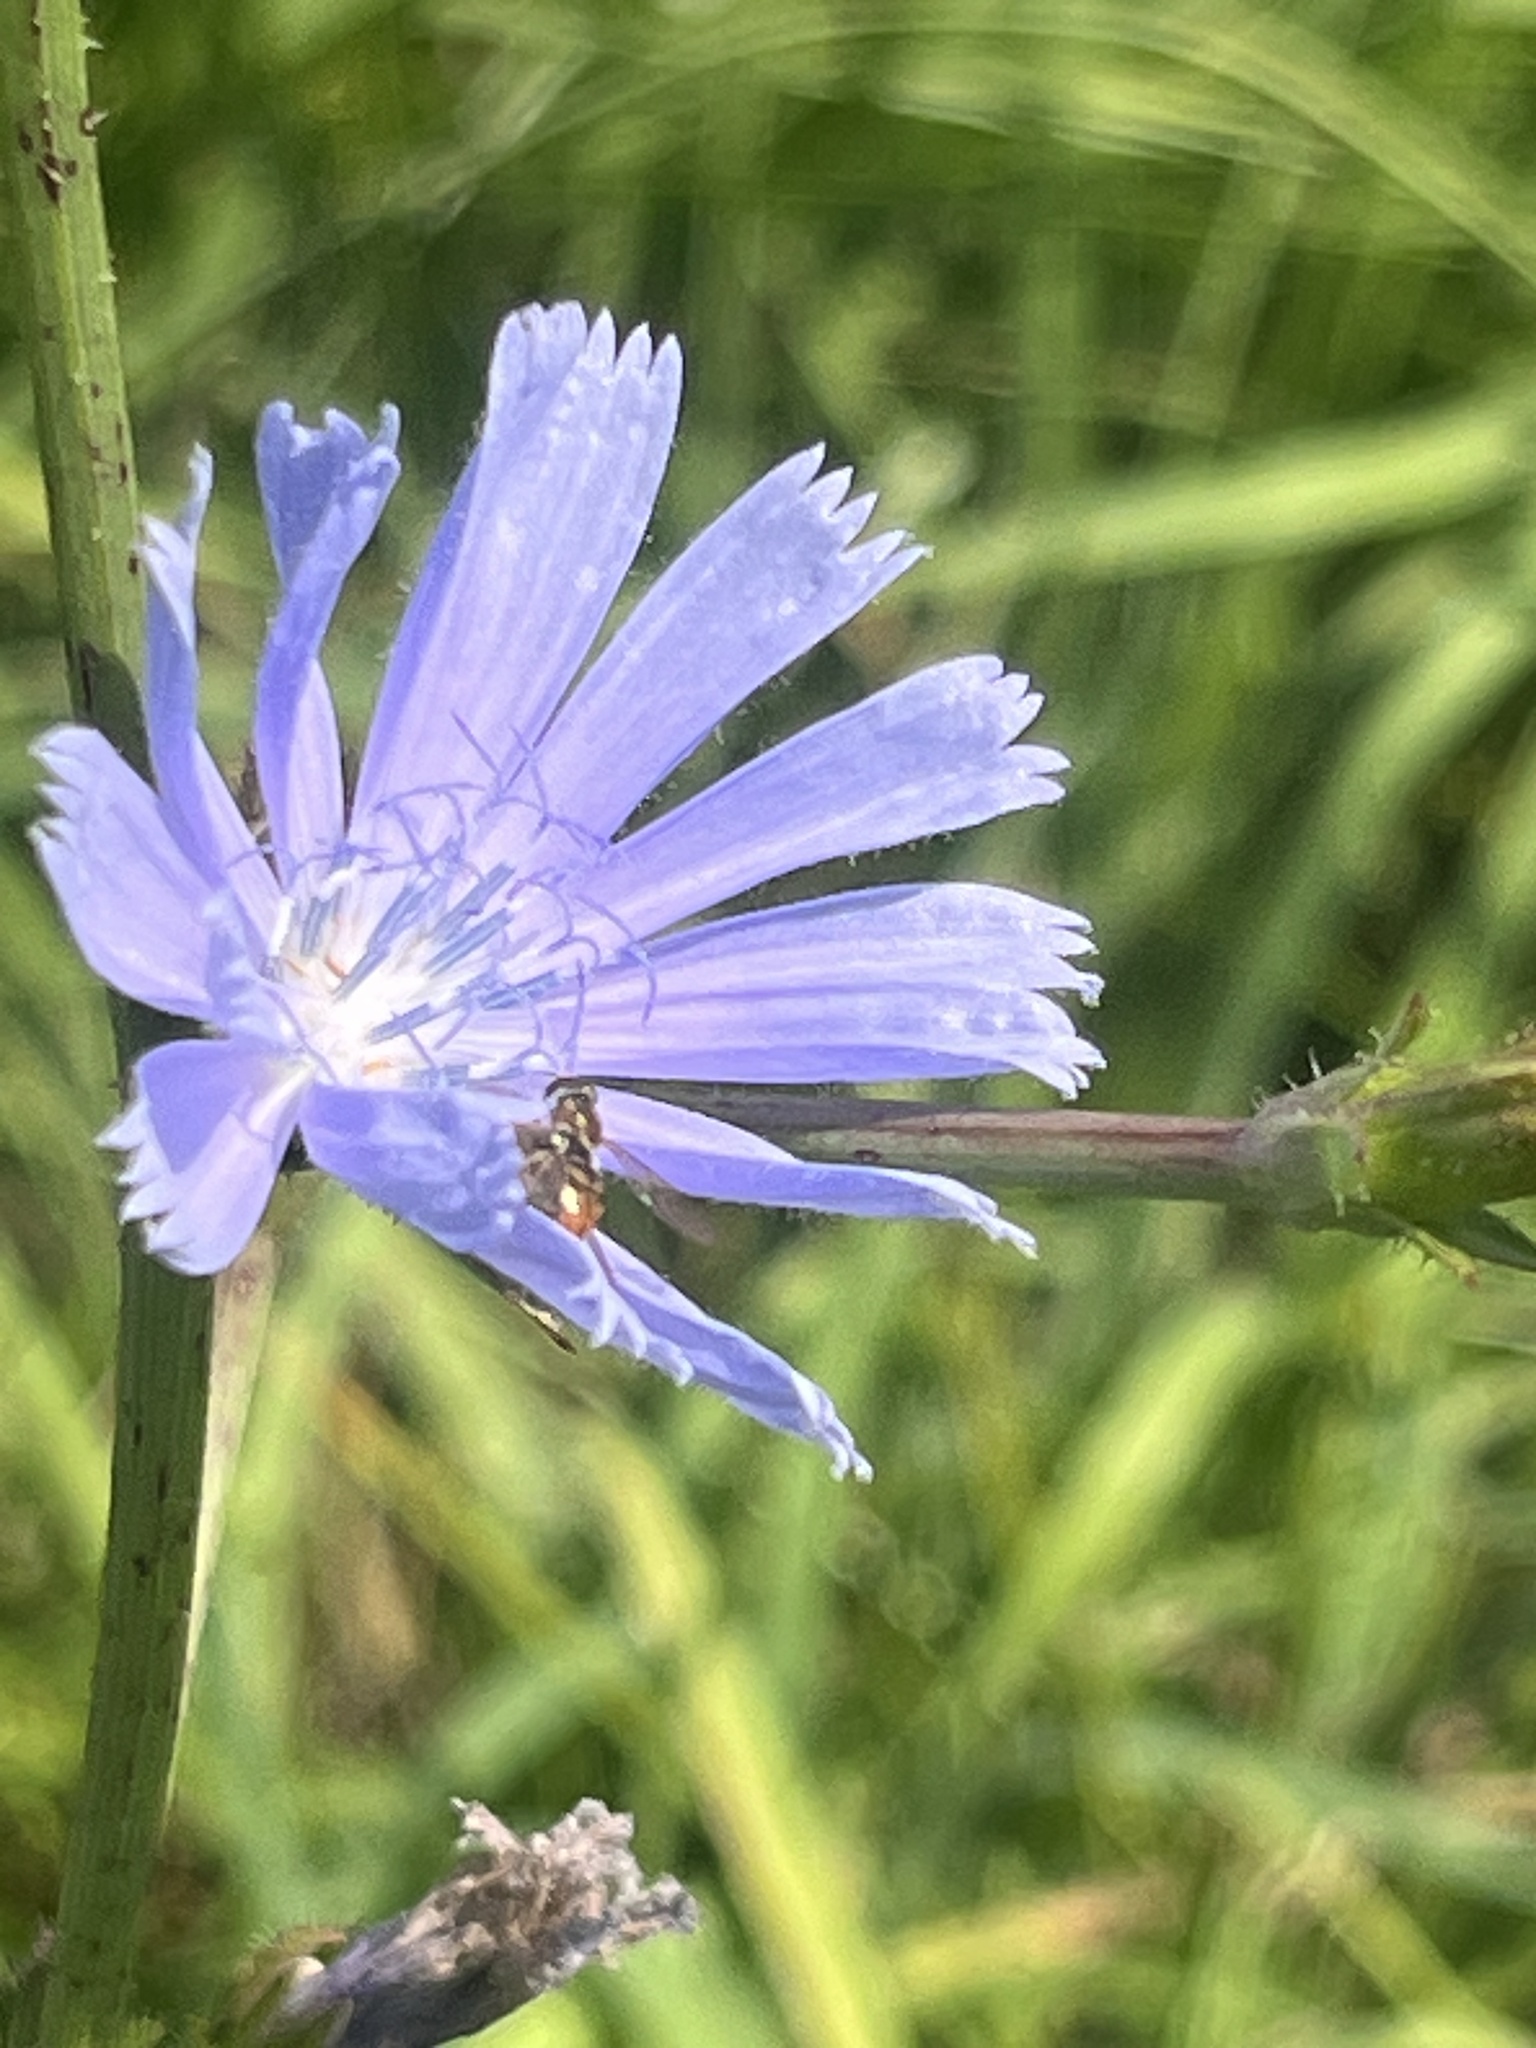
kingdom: Plantae
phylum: Tracheophyta
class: Magnoliopsida
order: Asterales
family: Asteraceae
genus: Cichorium
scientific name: Cichorium intybus
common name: Chicory
